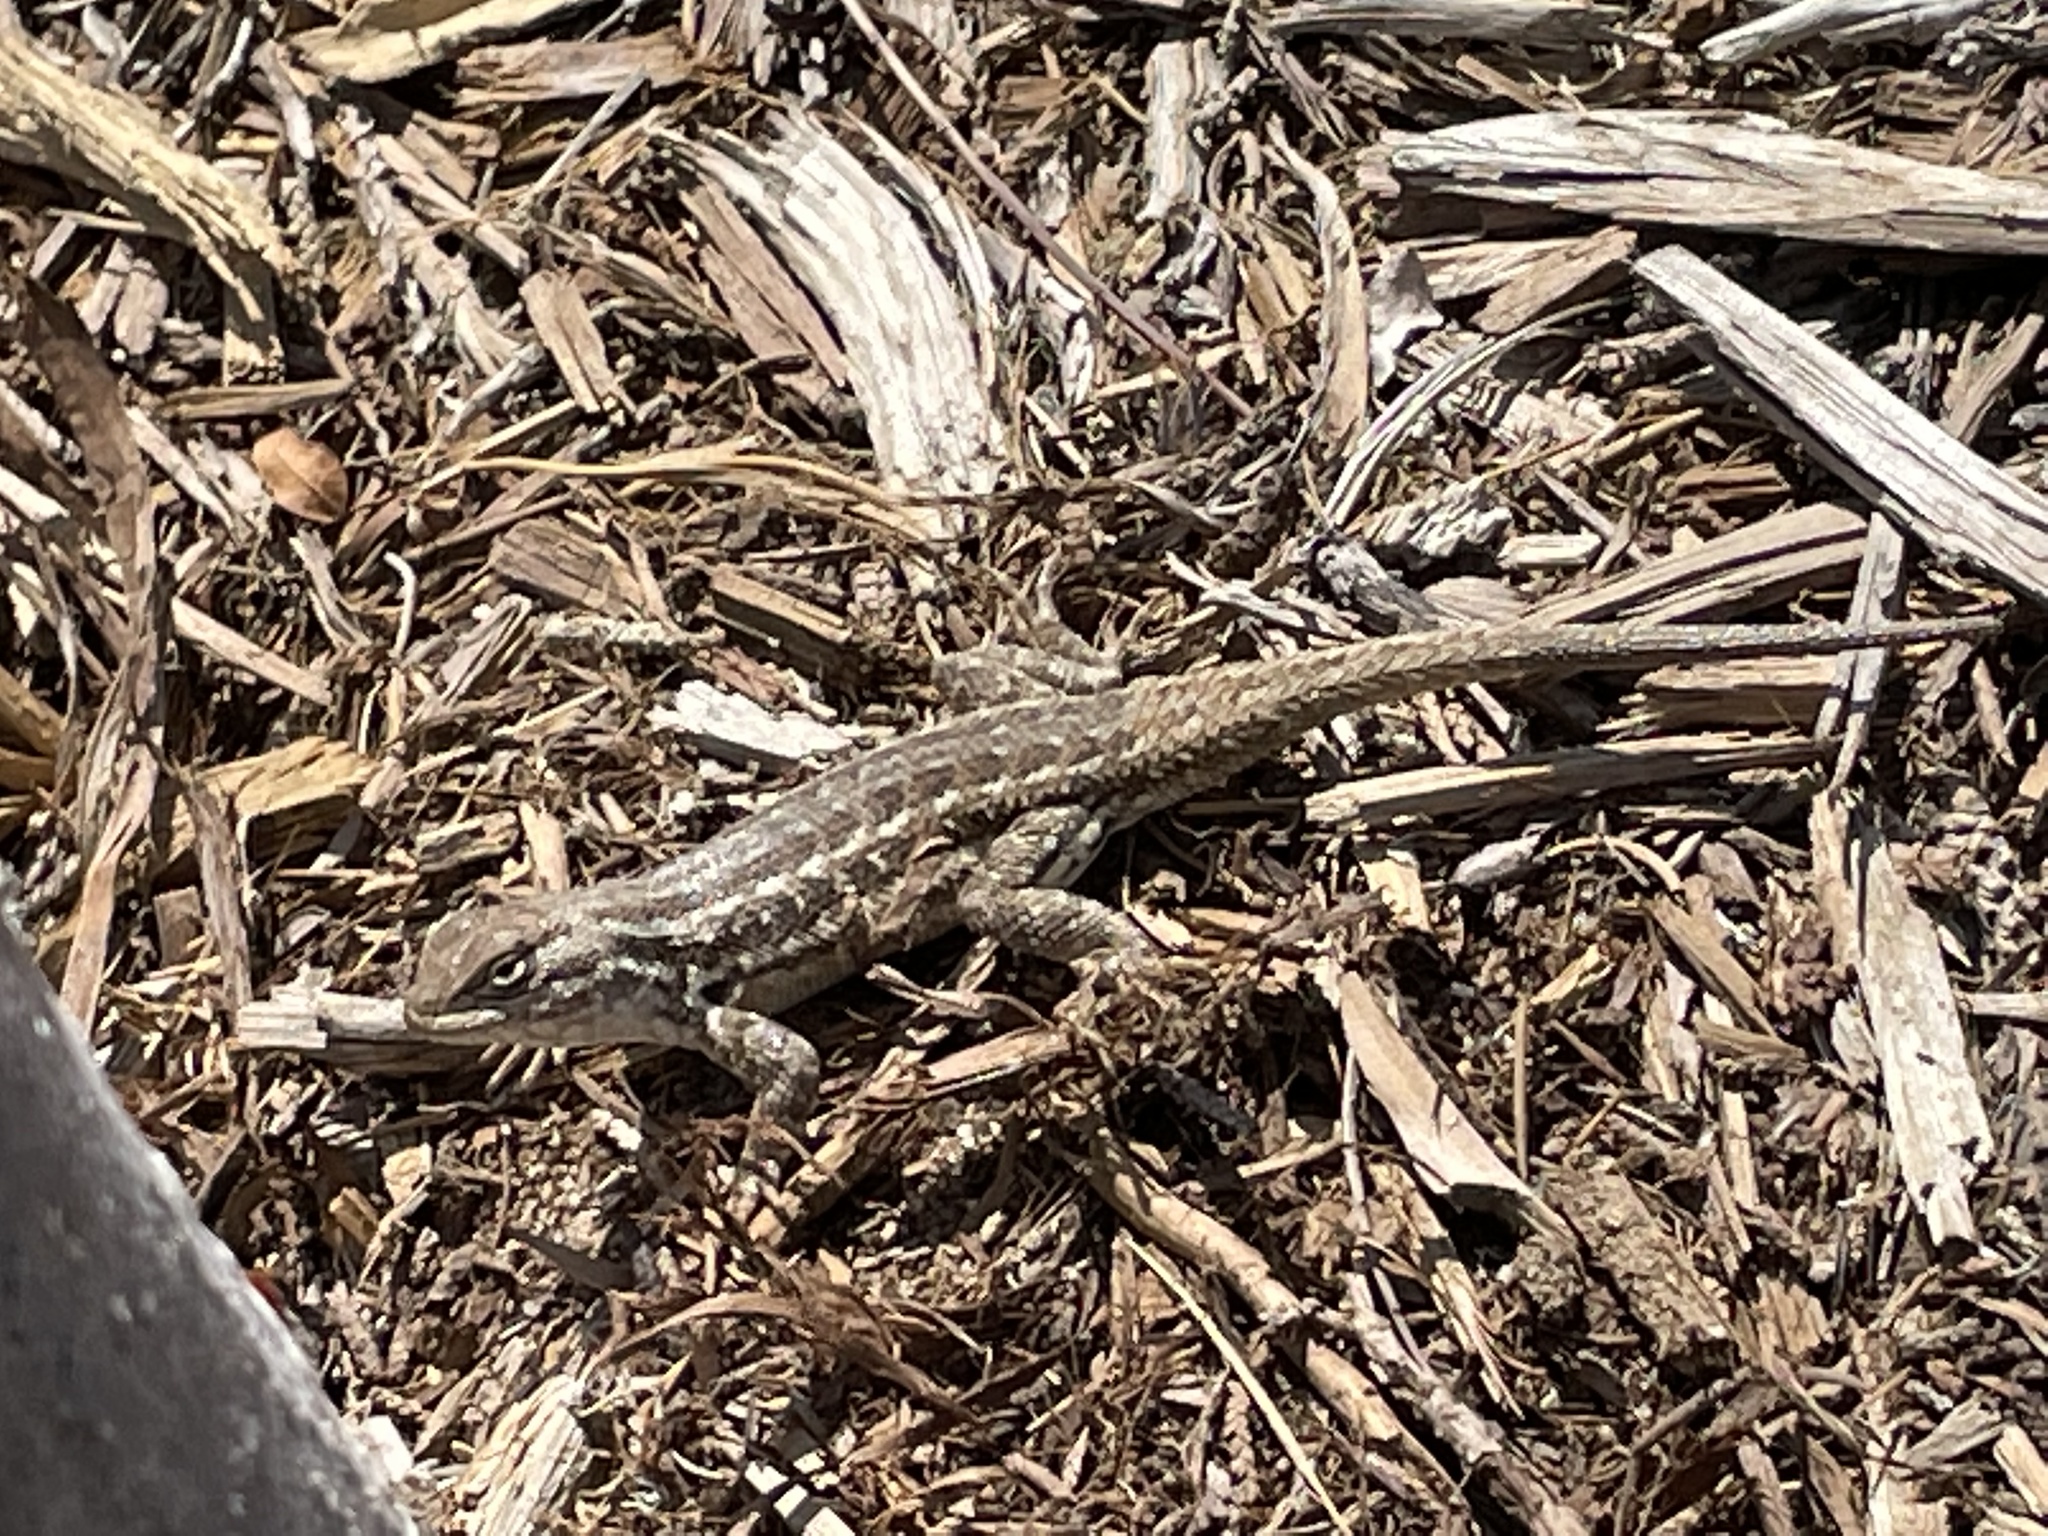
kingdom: Animalia
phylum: Chordata
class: Squamata
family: Phrynosomatidae
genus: Sceloporus
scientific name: Sceloporus graciosus
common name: Sagebrush lizard
